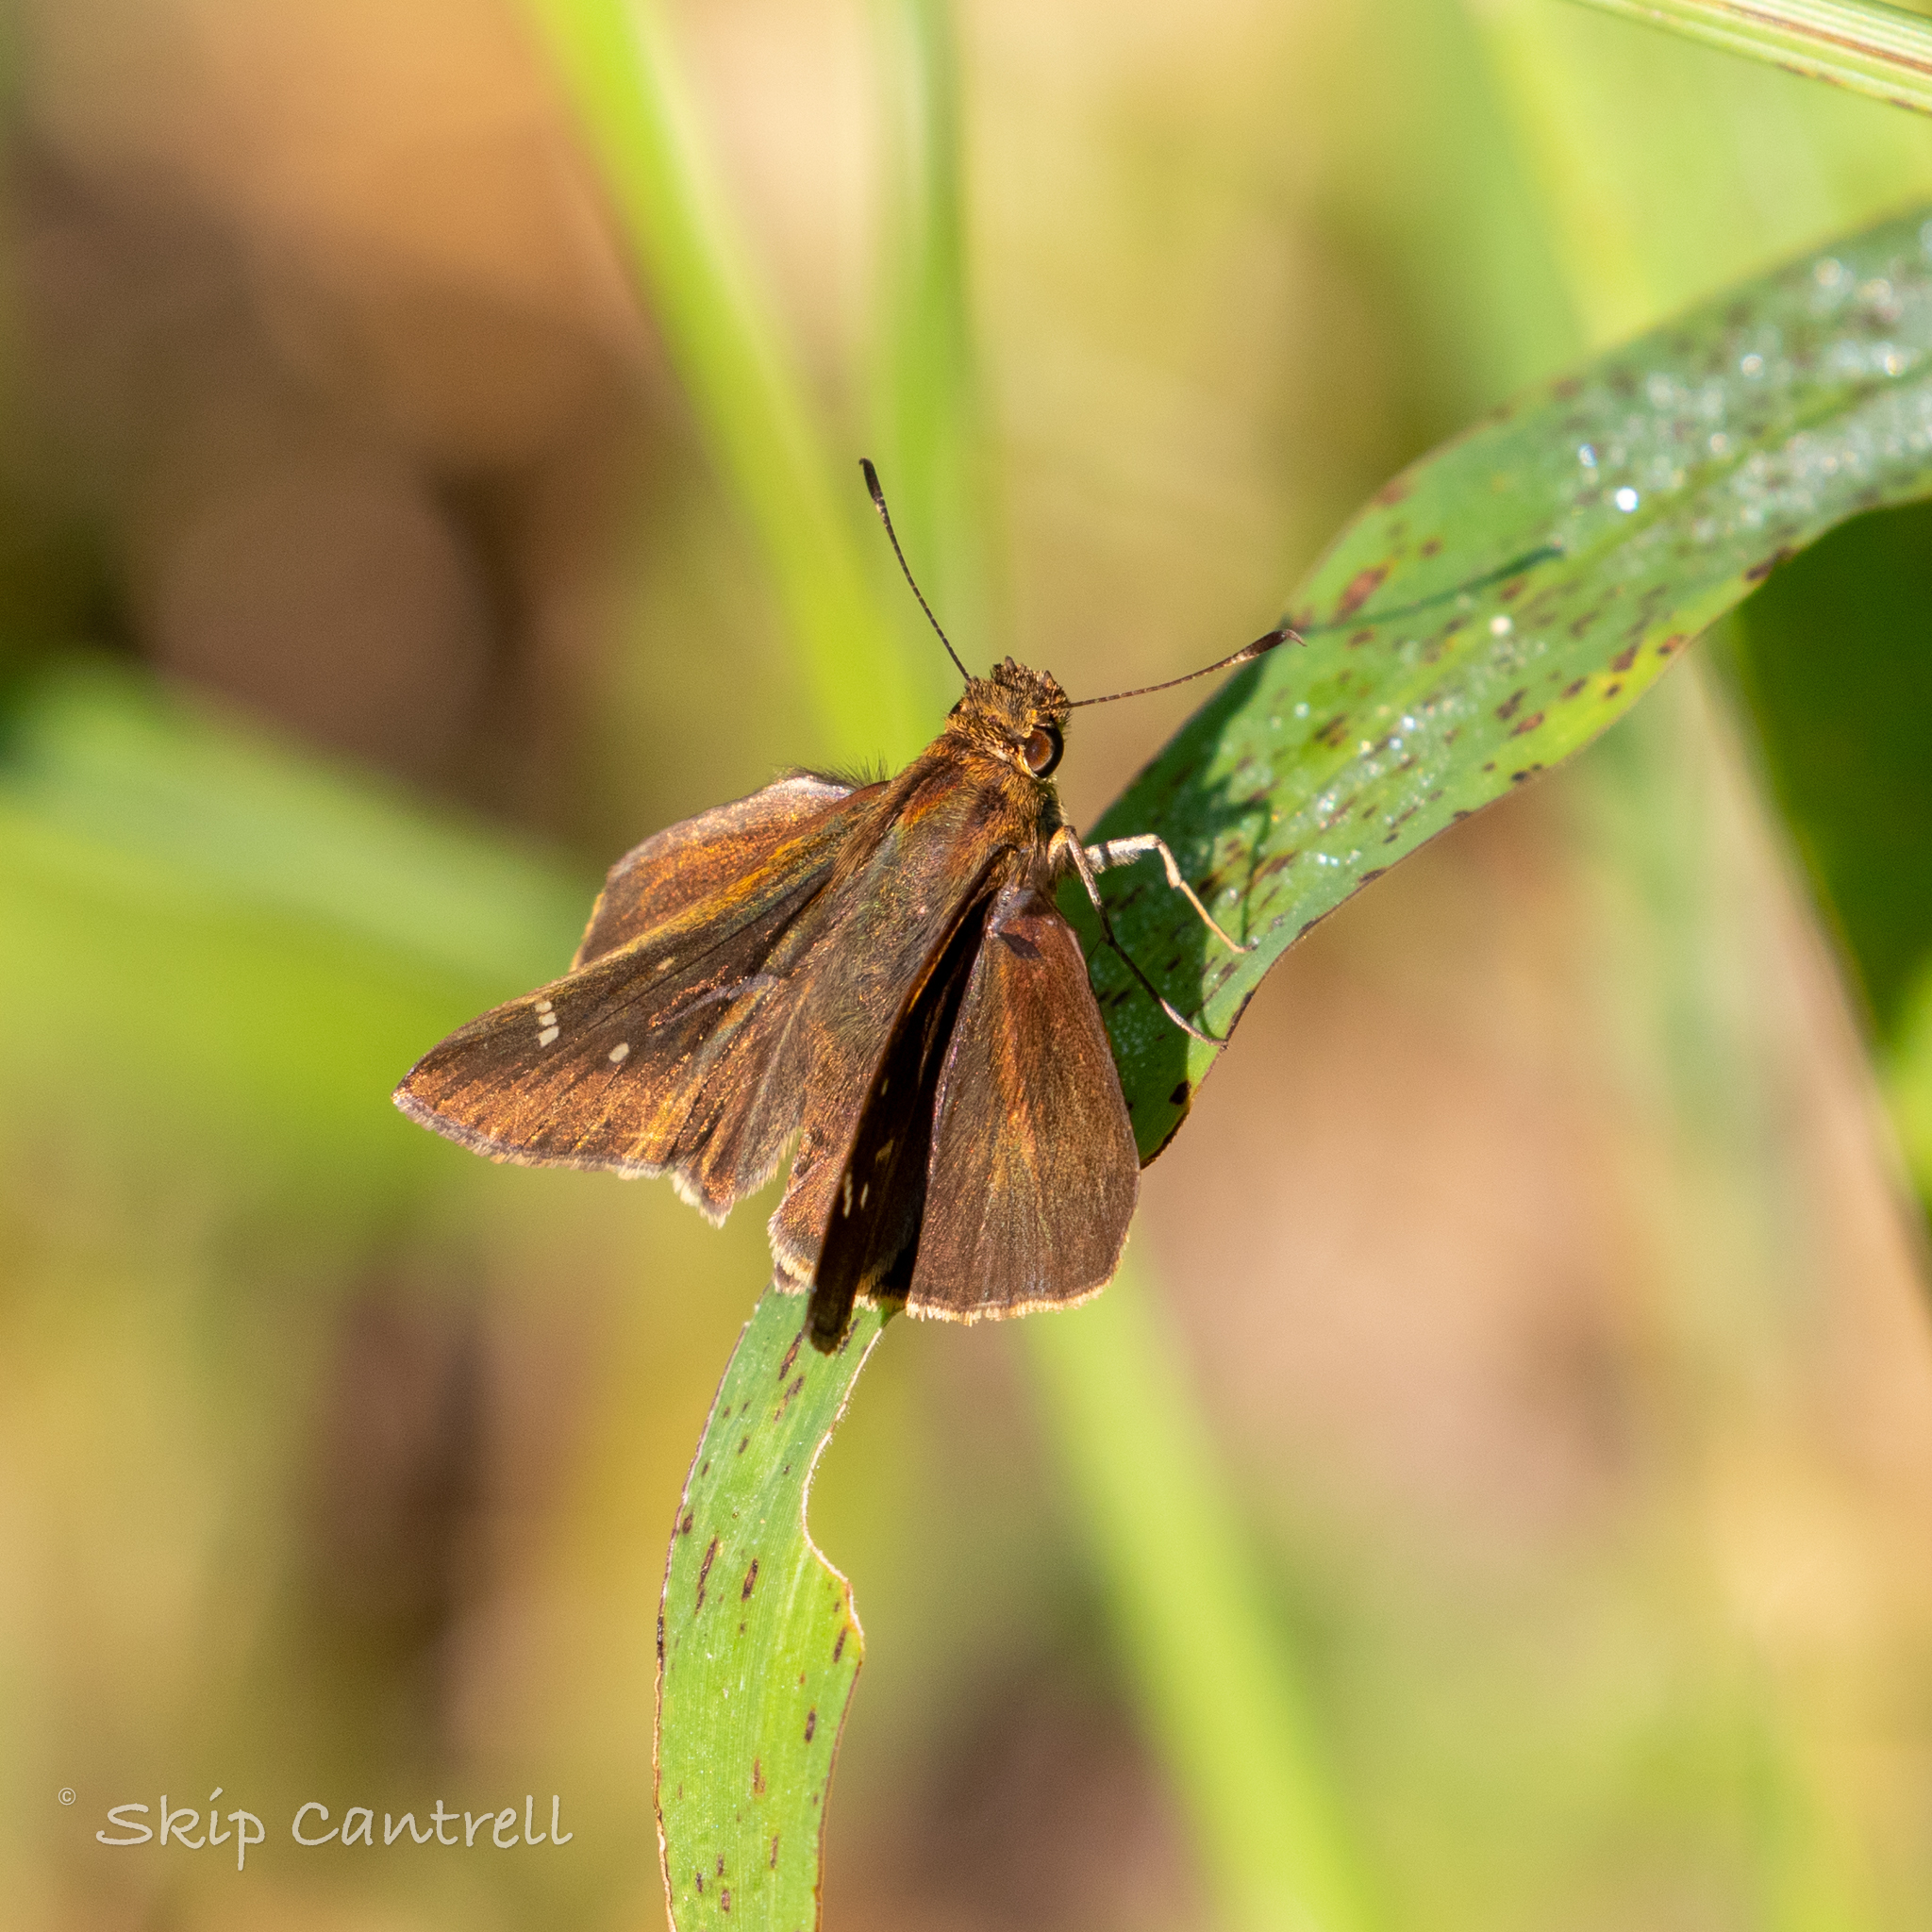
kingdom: Animalia
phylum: Arthropoda
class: Insecta
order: Lepidoptera
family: Hesperiidae
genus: Lerema
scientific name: Lerema accius
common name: Clouded skipper
